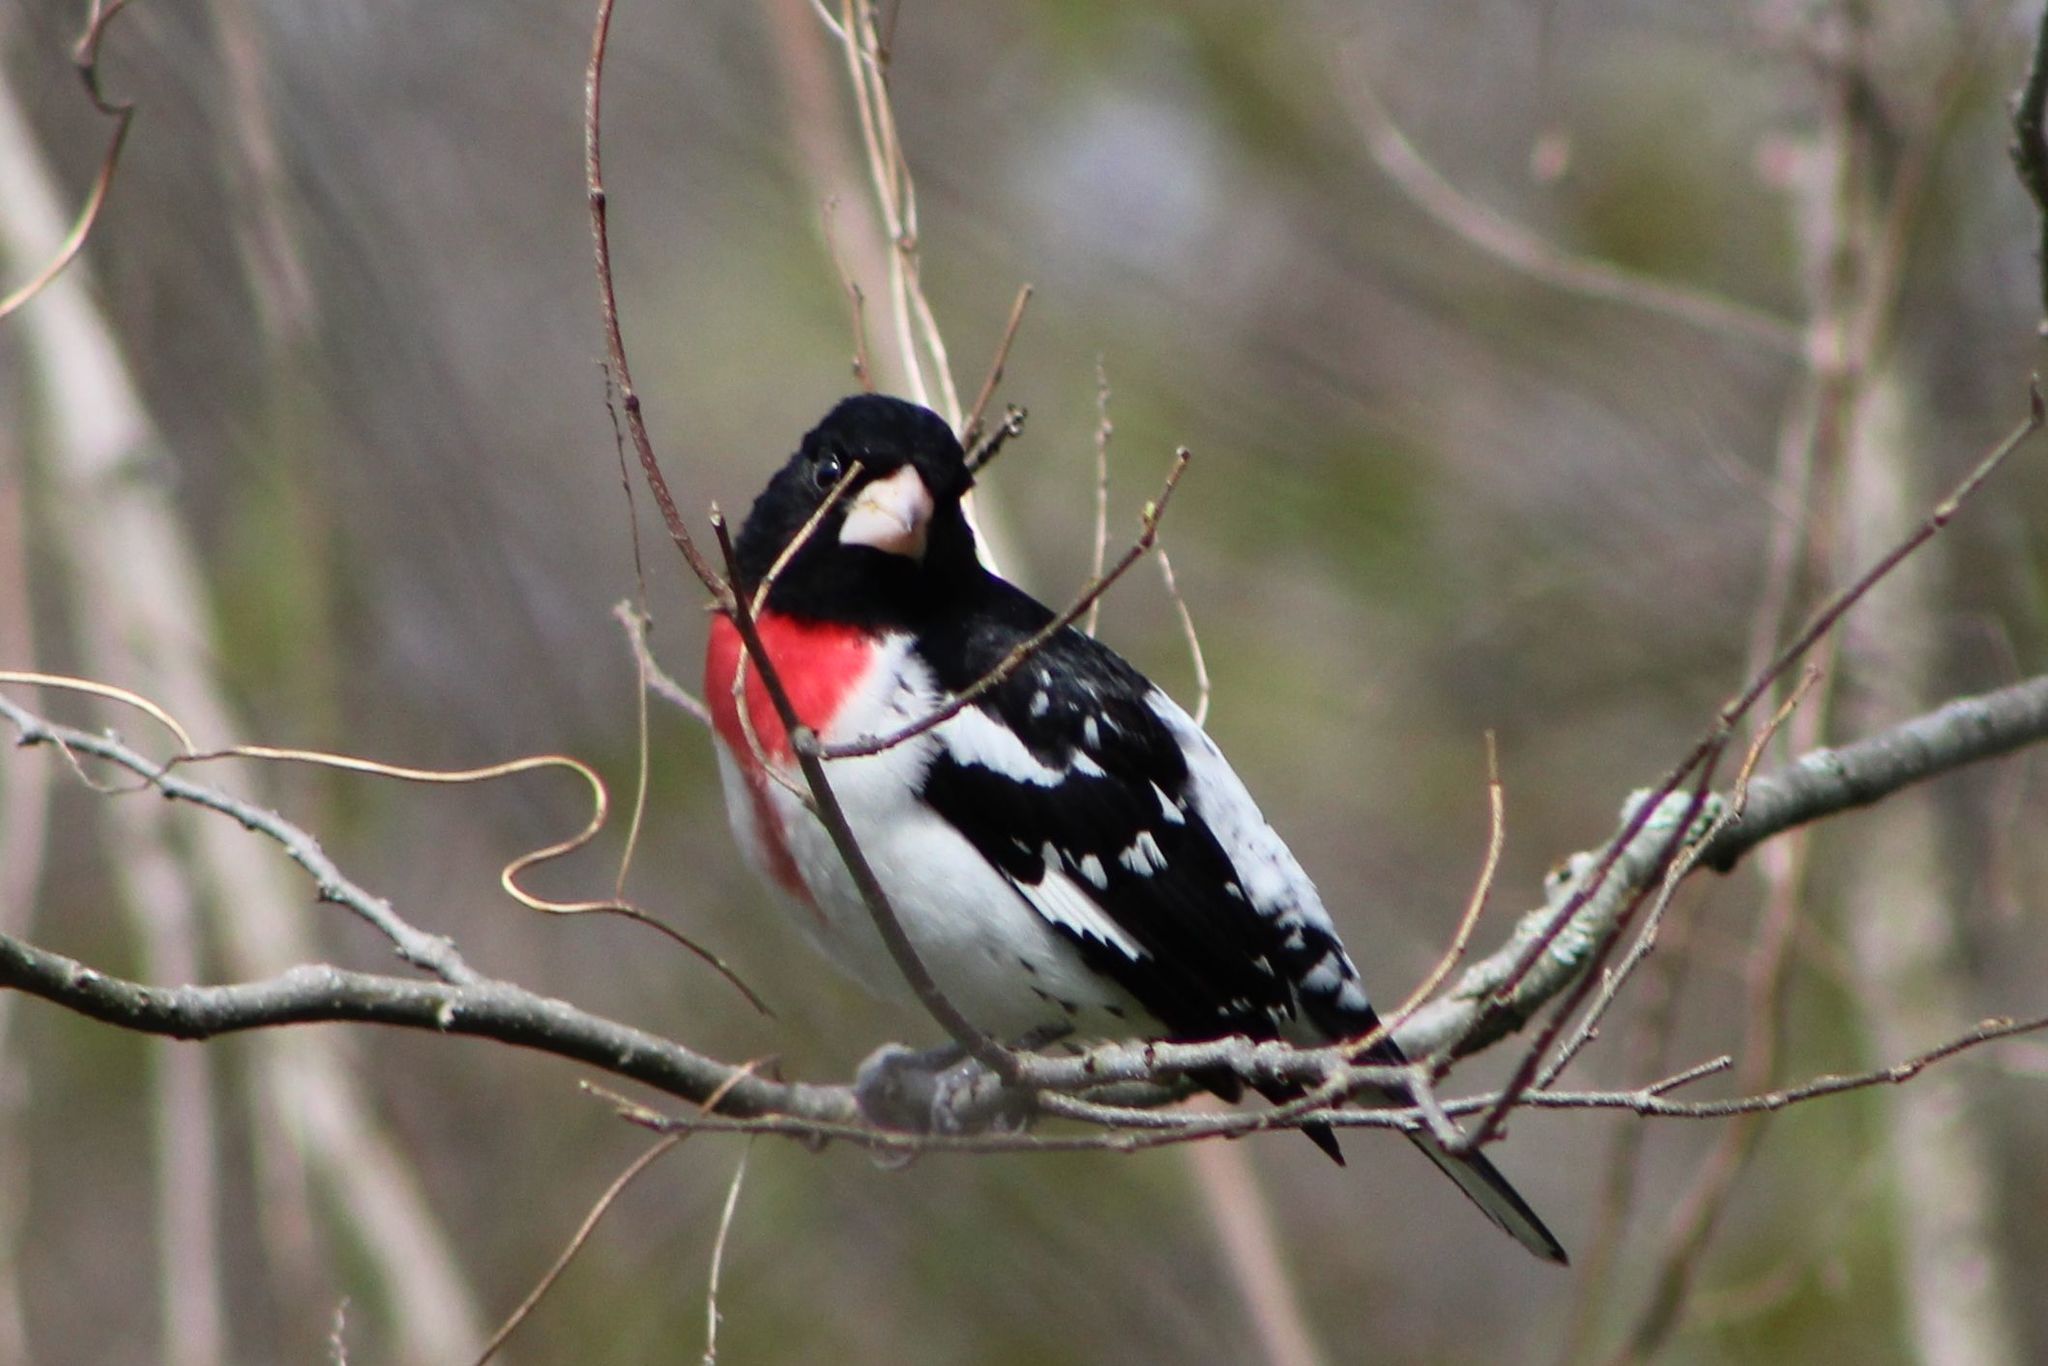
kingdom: Animalia
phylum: Chordata
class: Aves
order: Passeriformes
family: Cardinalidae
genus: Pheucticus
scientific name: Pheucticus ludovicianus
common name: Rose-breasted grosbeak
